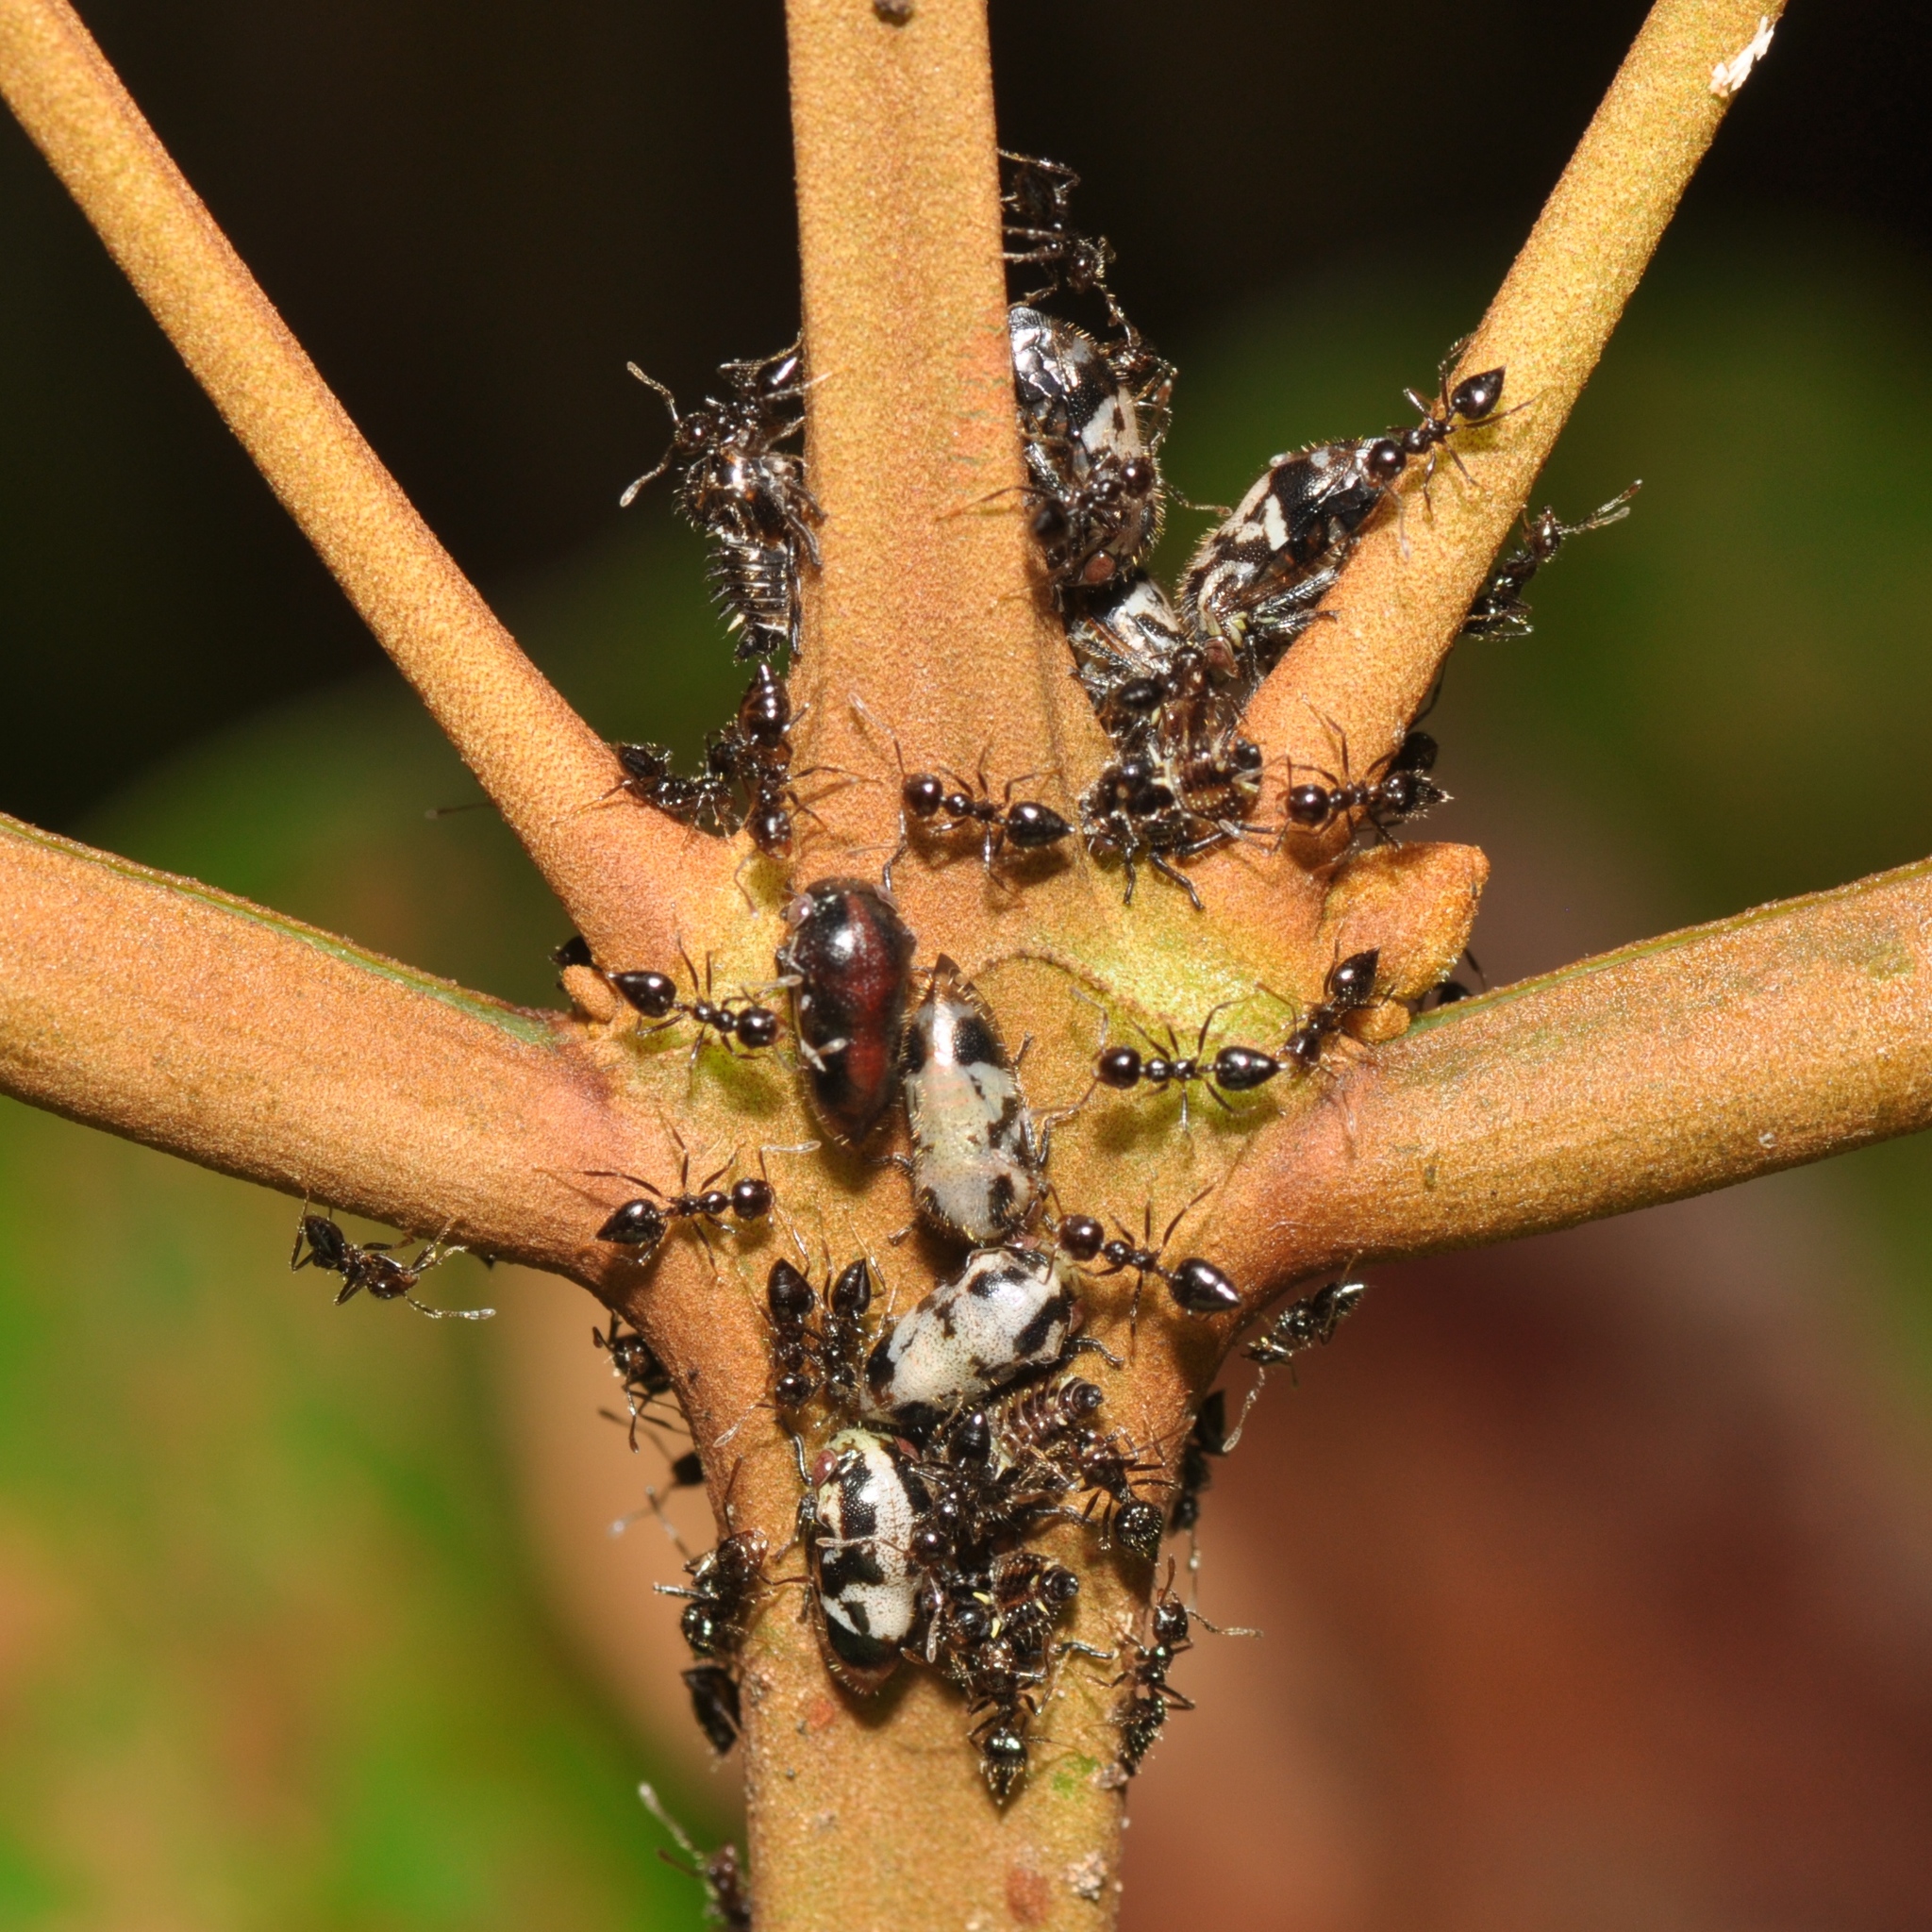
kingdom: Animalia
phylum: Arthropoda
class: Insecta
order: Hemiptera
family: Membracidae
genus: Harmonides
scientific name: Harmonides reticulata
